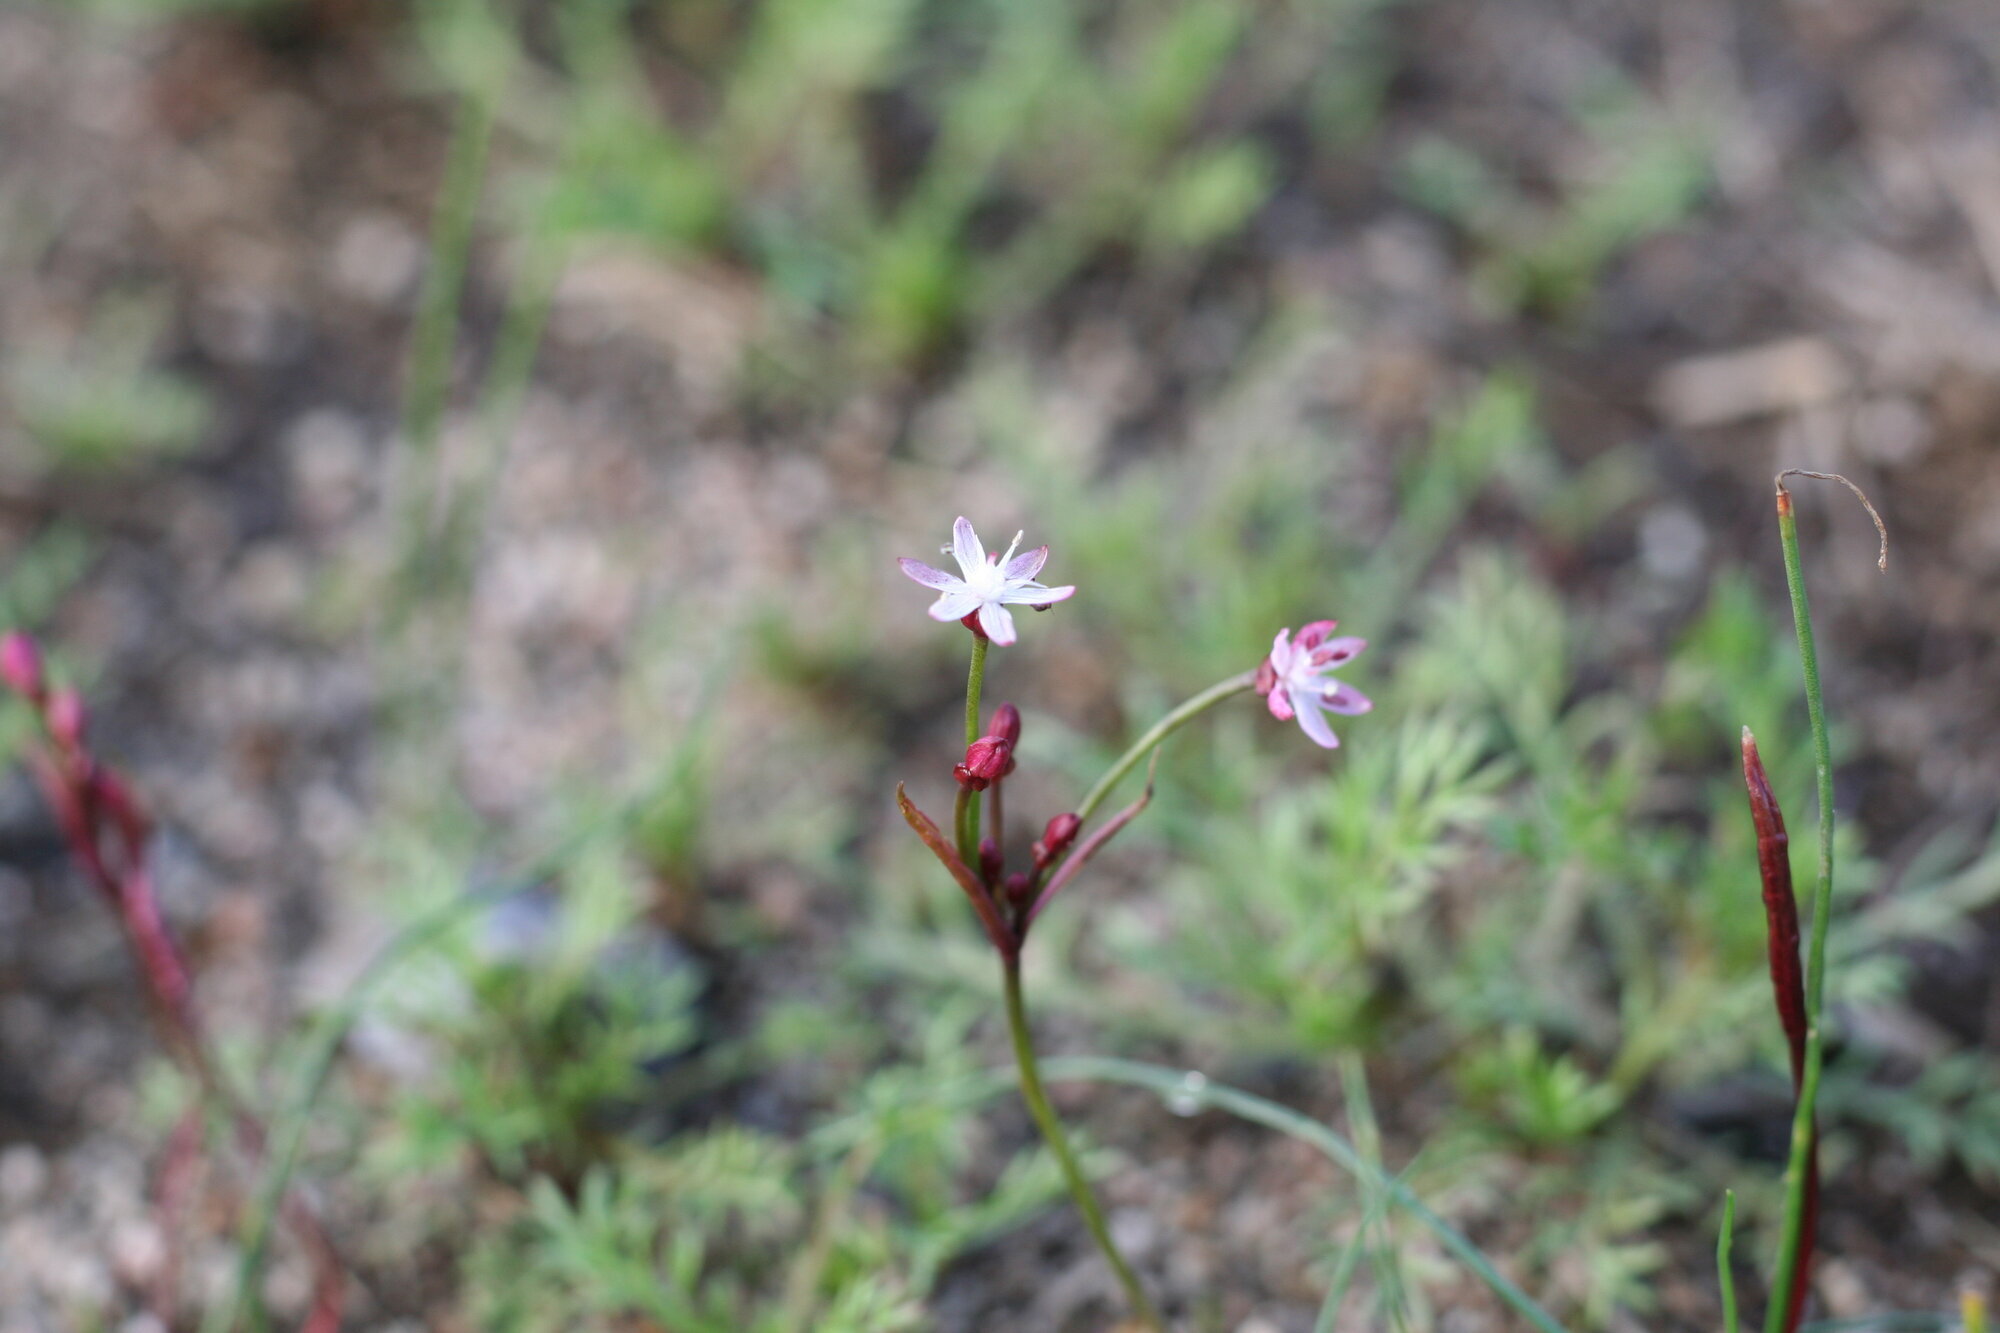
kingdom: Plantae
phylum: Tracheophyta
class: Liliopsida
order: Asparagales
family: Amaryllidaceae
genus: Strumaria
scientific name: Strumaria tenella
